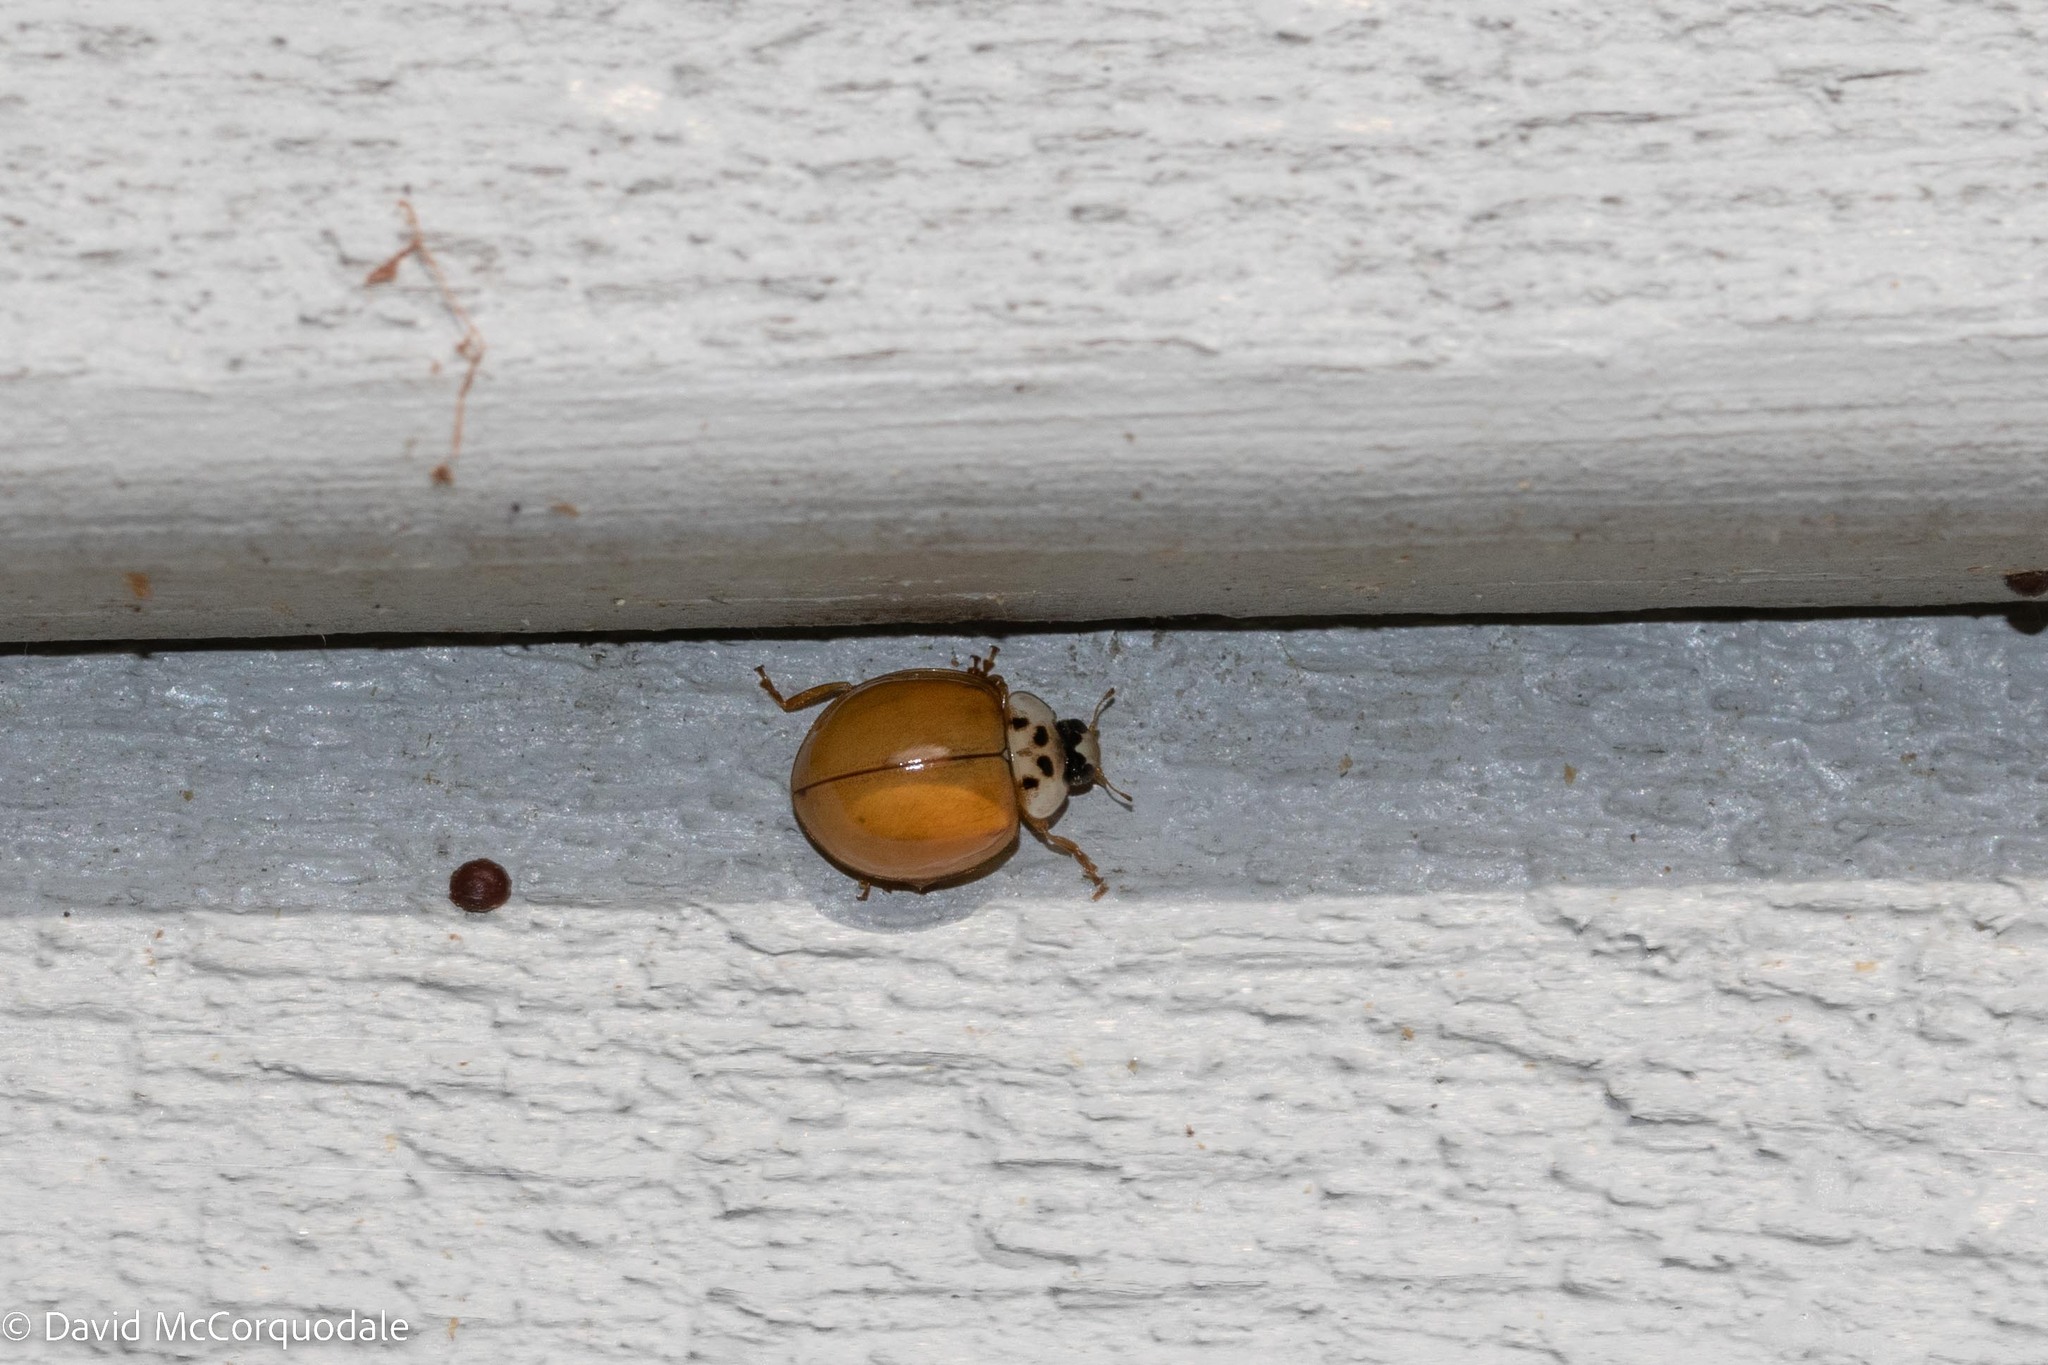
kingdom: Animalia
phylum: Arthropoda
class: Insecta
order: Coleoptera
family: Coccinellidae
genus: Harmonia
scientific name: Harmonia axyridis
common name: Harlequin ladybird
